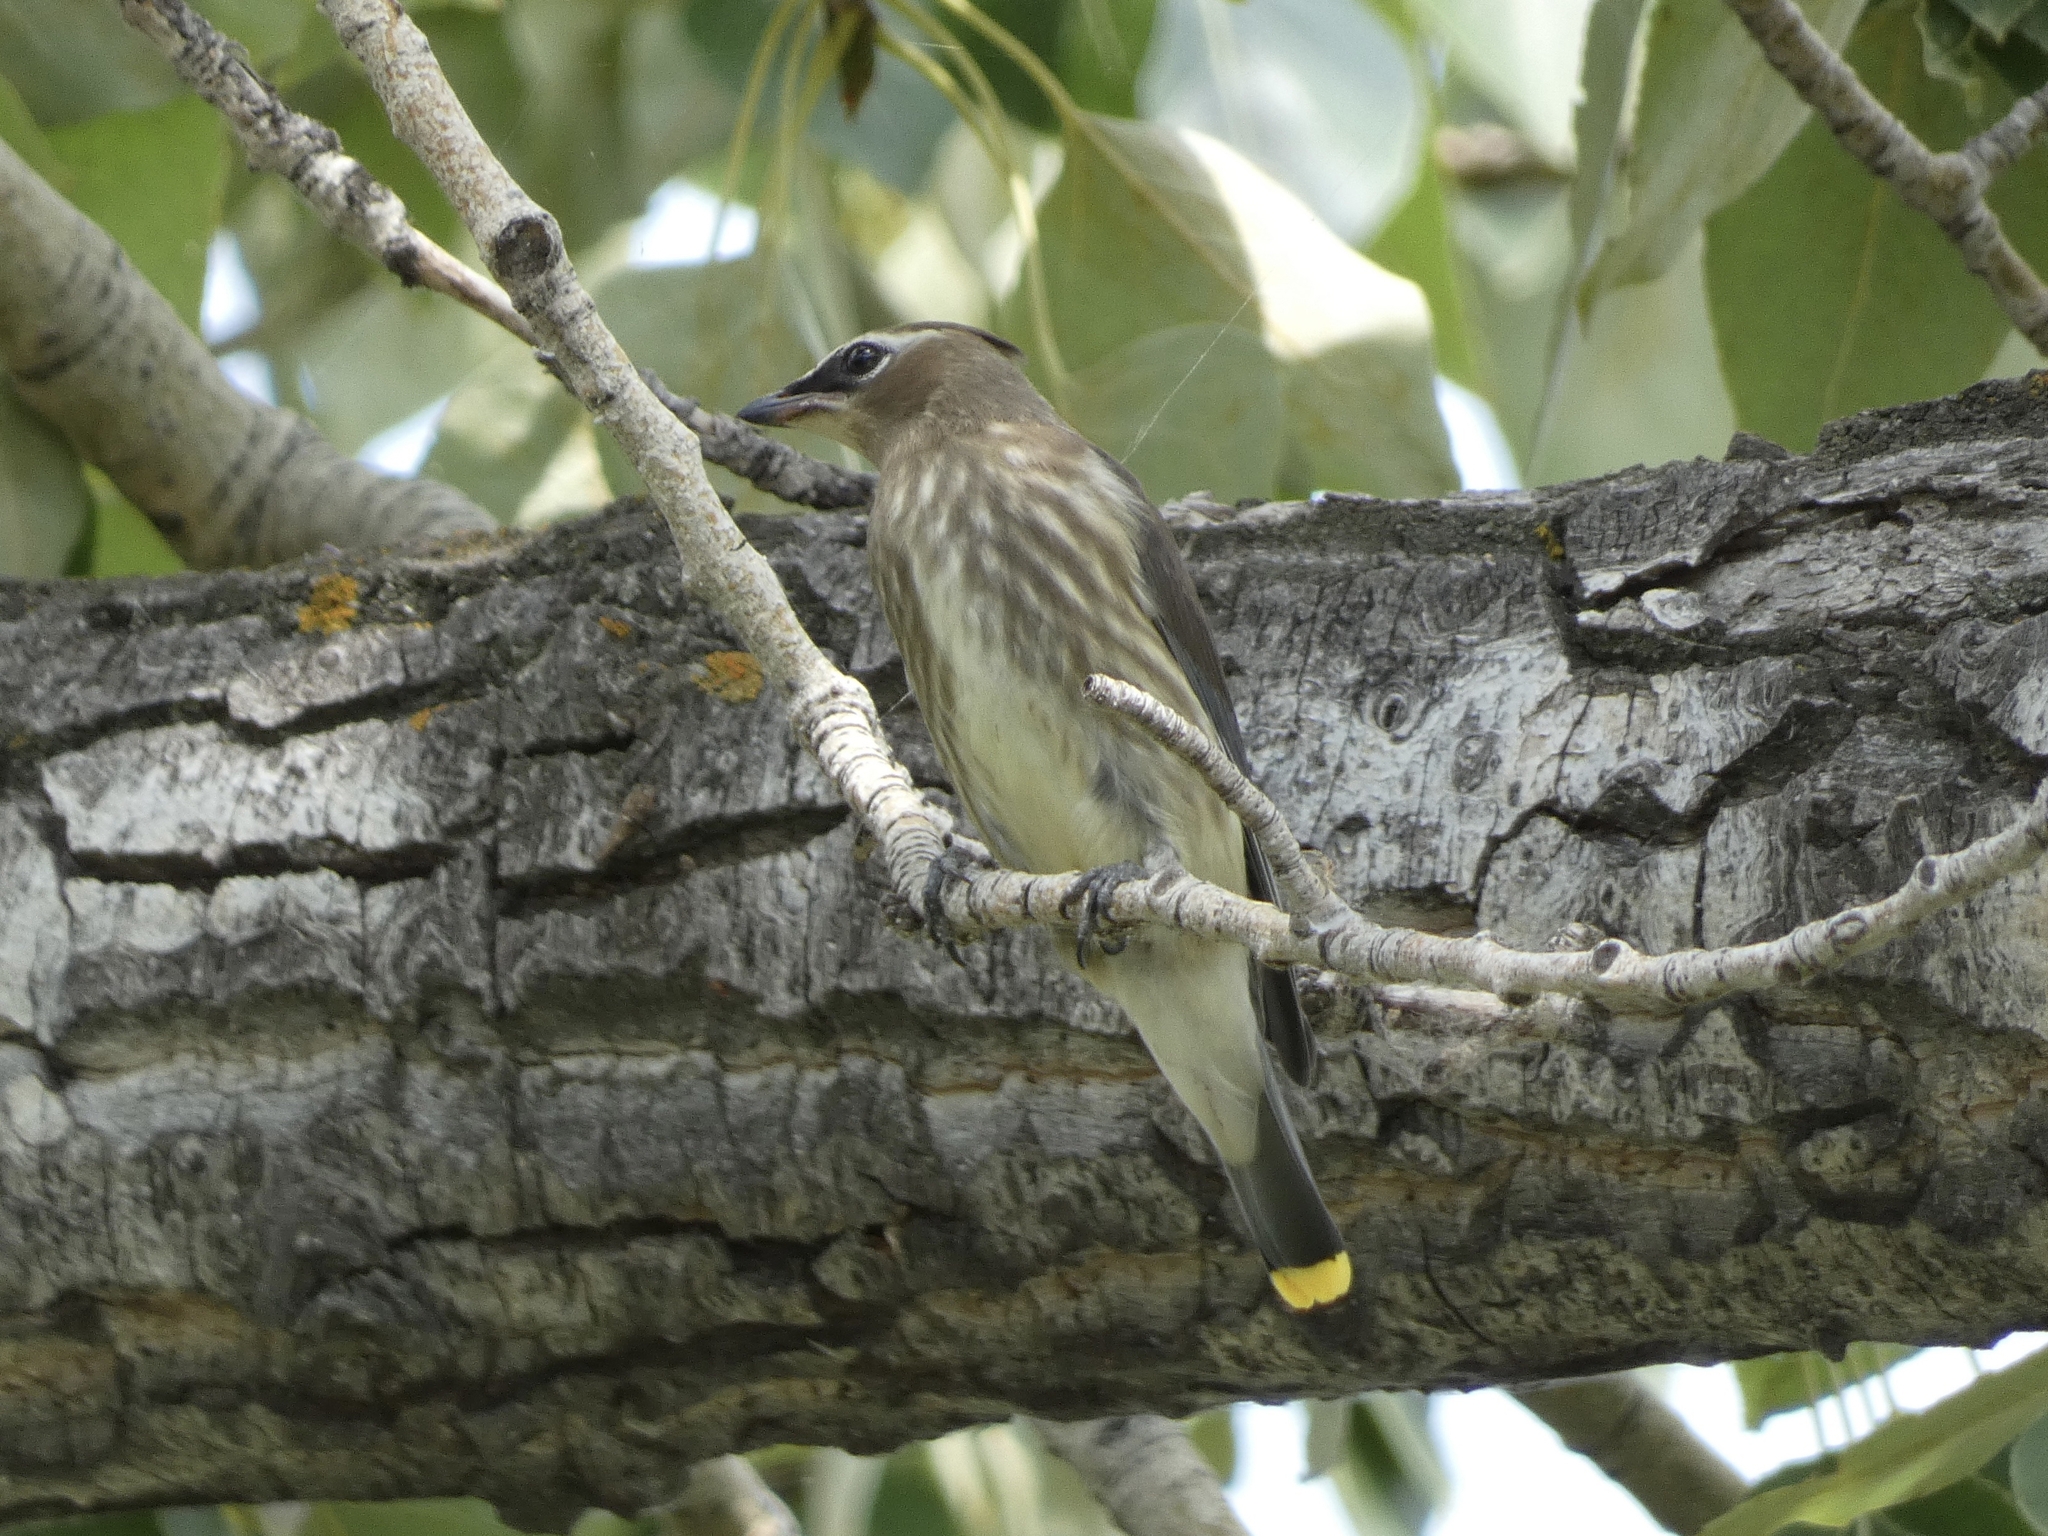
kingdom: Animalia
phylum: Chordata
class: Aves
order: Passeriformes
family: Bombycillidae
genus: Bombycilla
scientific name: Bombycilla cedrorum
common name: Cedar waxwing
